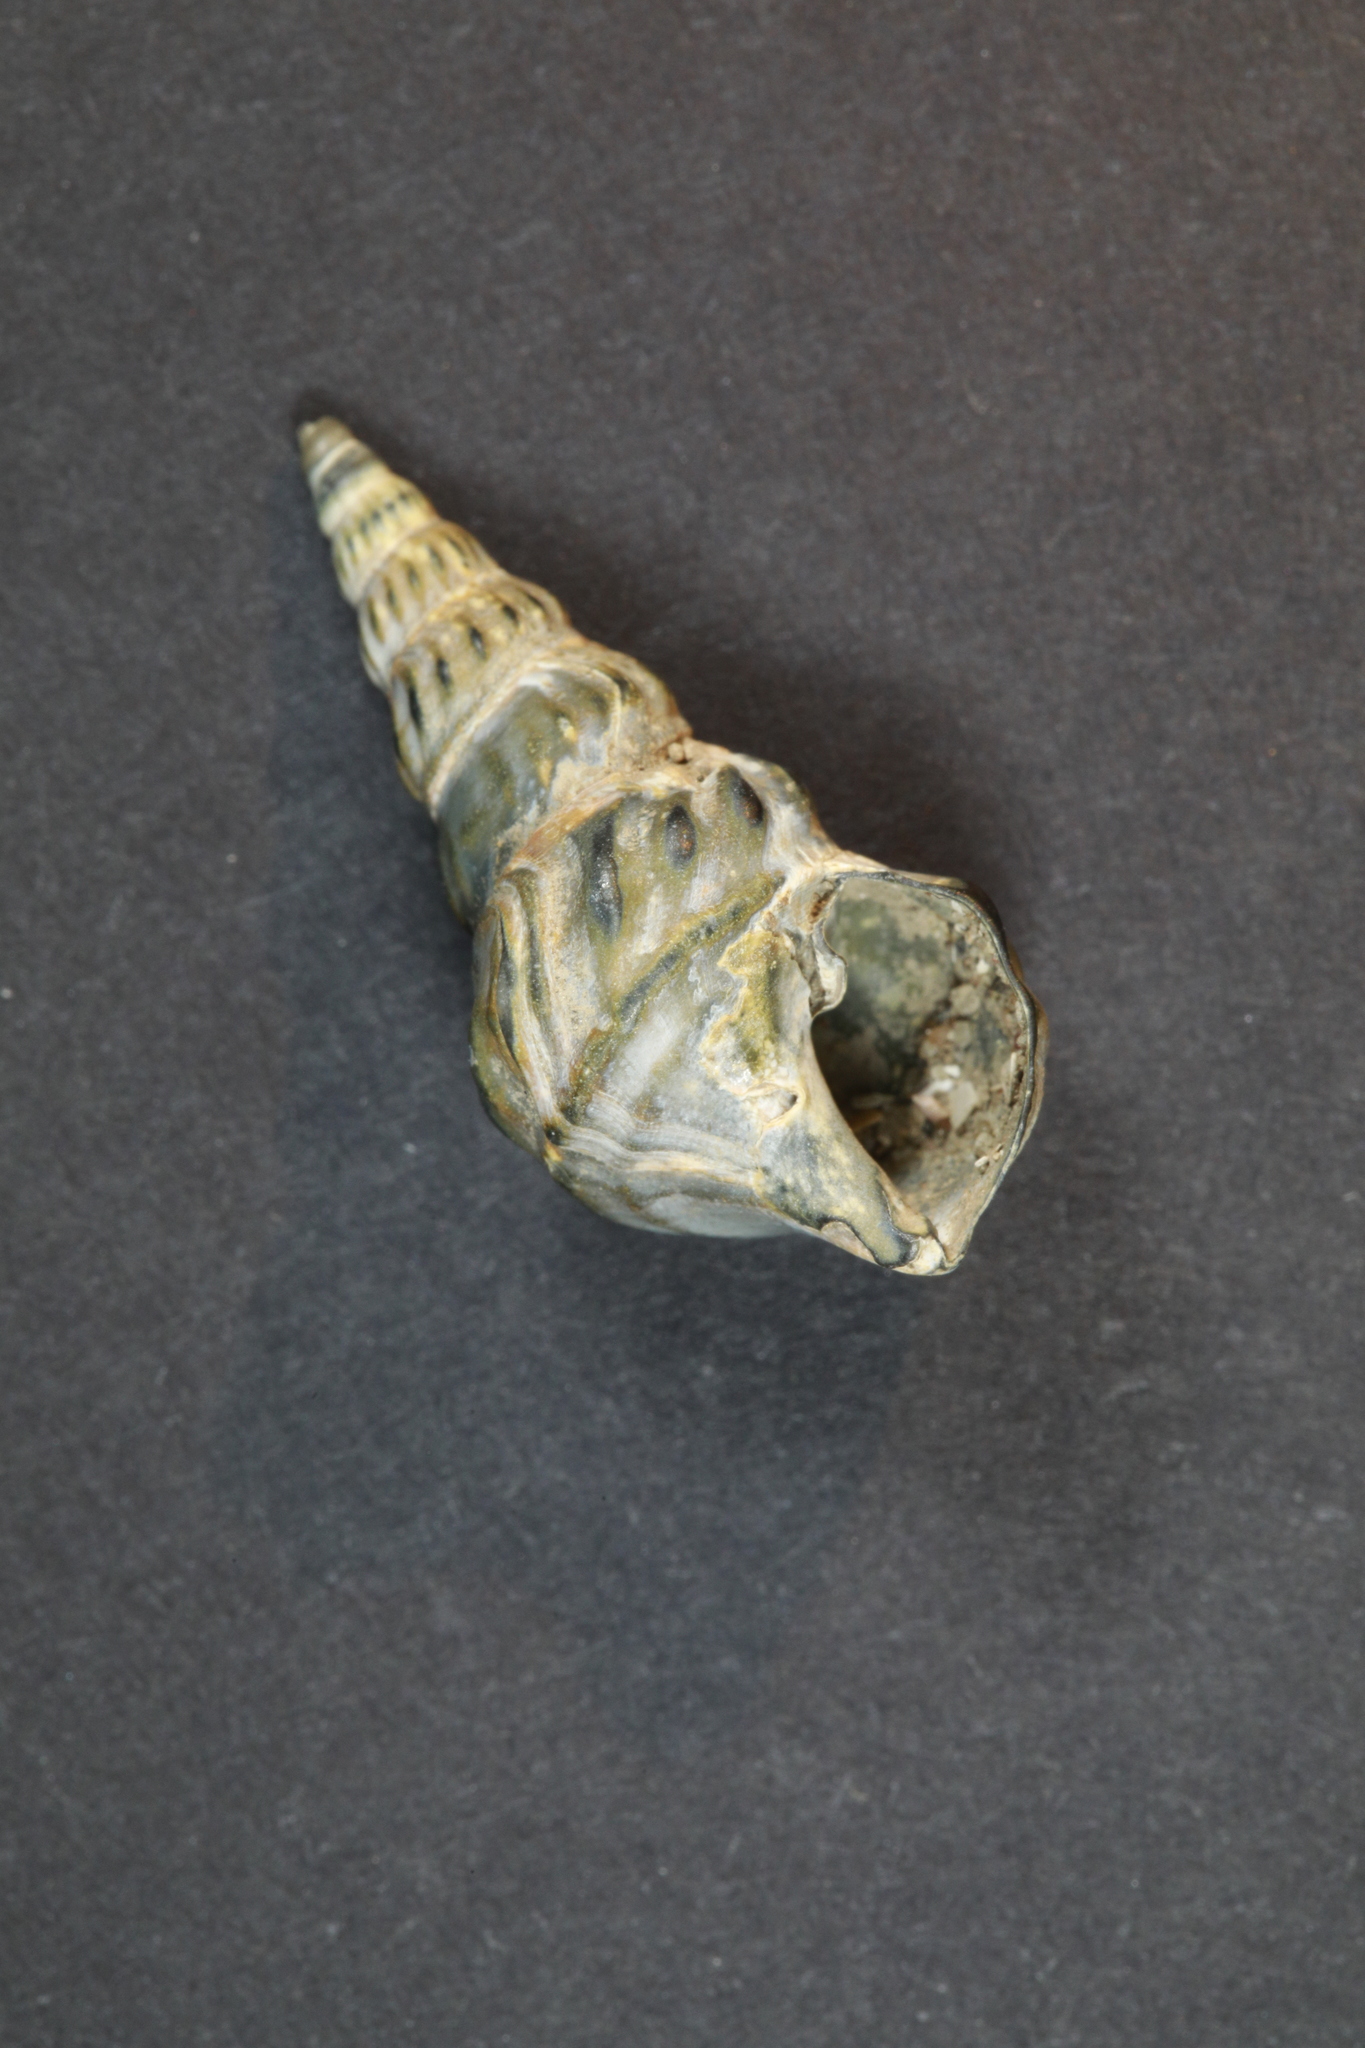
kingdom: Animalia
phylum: Mollusca
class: Gastropoda
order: Littorinimorpha
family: Aporrhaidae
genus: Aporrhais
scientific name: Aporrhais pespelecani
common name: Common pelican’s foot
